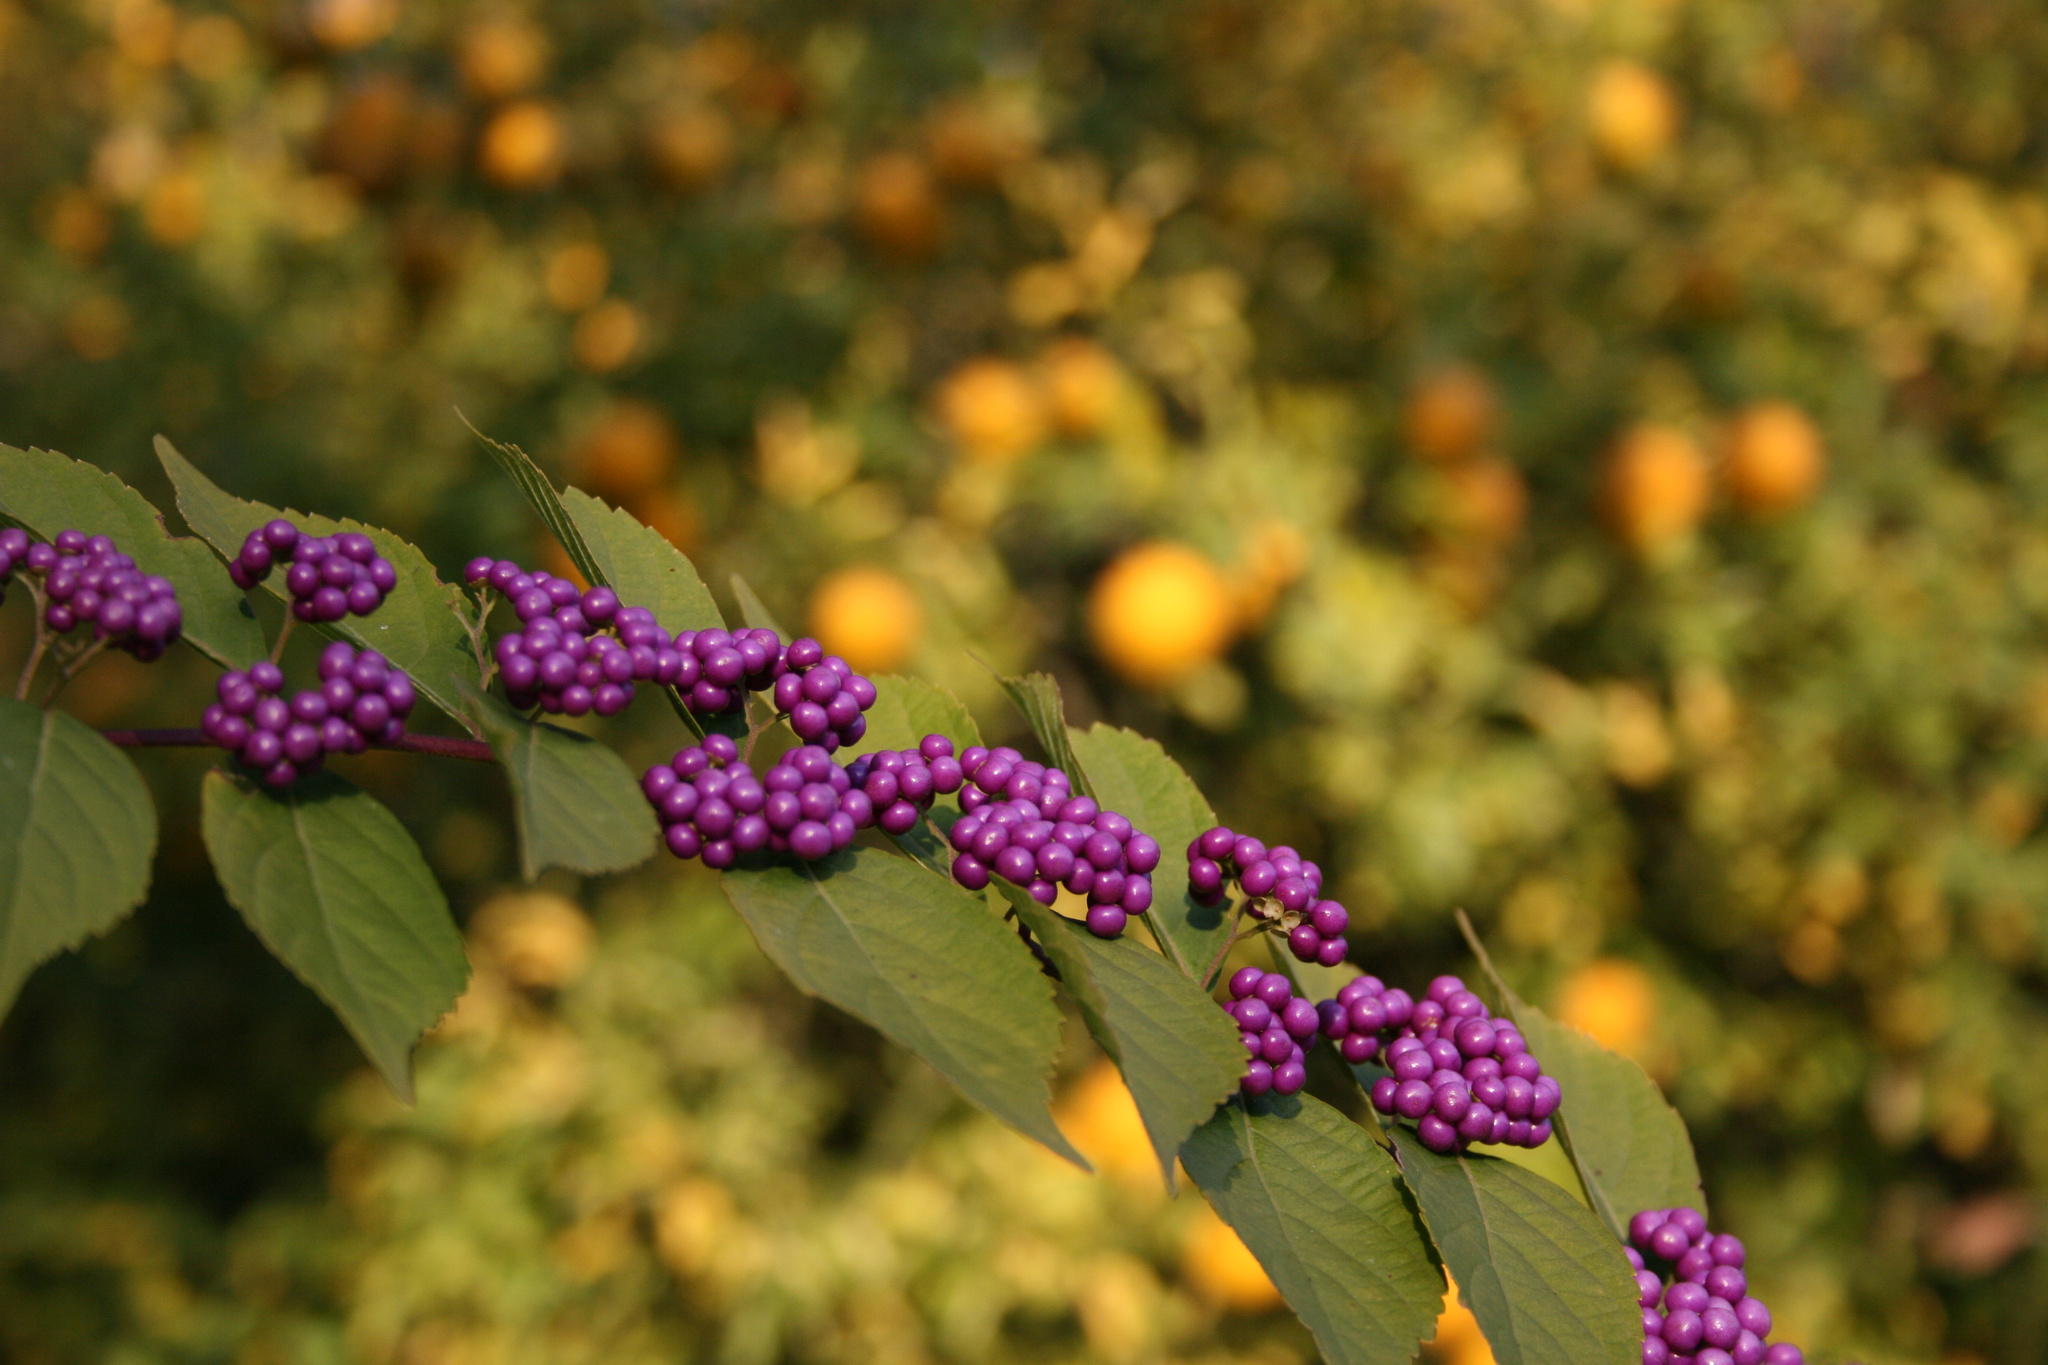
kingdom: Plantae
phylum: Tracheophyta
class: Magnoliopsida
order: Lamiales
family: Lamiaceae
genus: Callicarpa
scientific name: Callicarpa americana
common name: American beautyberry
